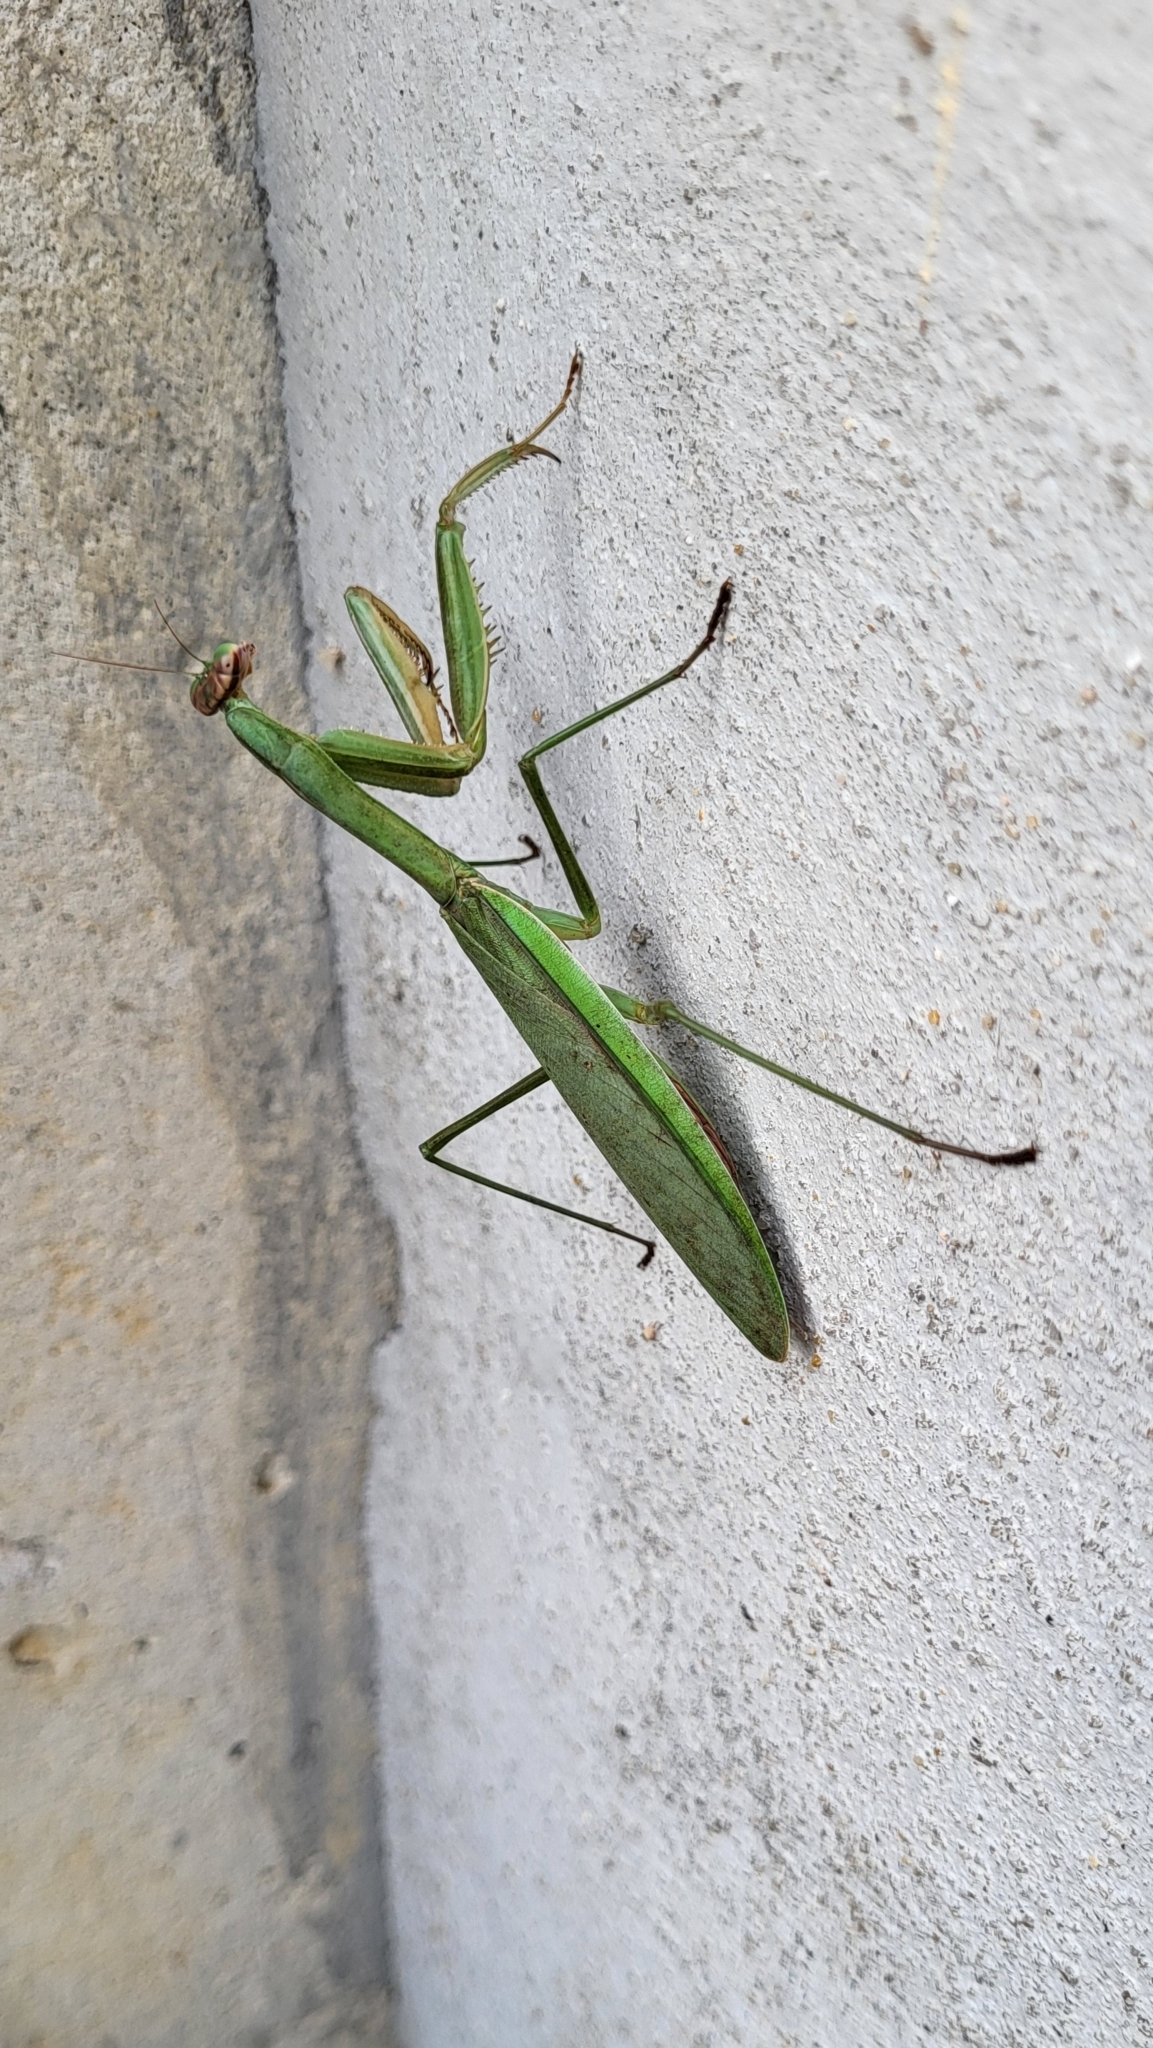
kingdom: Animalia
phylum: Arthropoda
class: Insecta
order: Mantodea
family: Mantidae
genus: Tenodera
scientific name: Tenodera sinensis
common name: Chinese mantis
